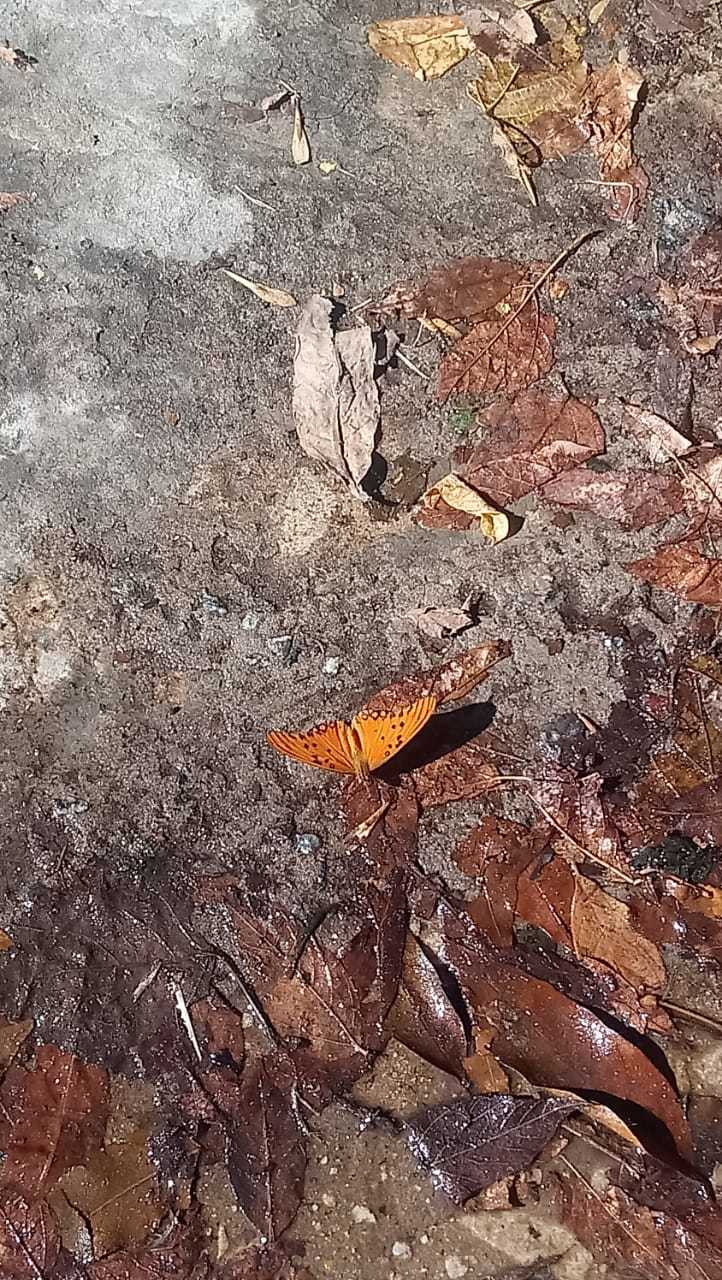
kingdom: Animalia
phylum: Arthropoda
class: Insecta
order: Lepidoptera
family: Nymphalidae
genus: Dione
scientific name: Dione vanillae
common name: Gulf fritillary
